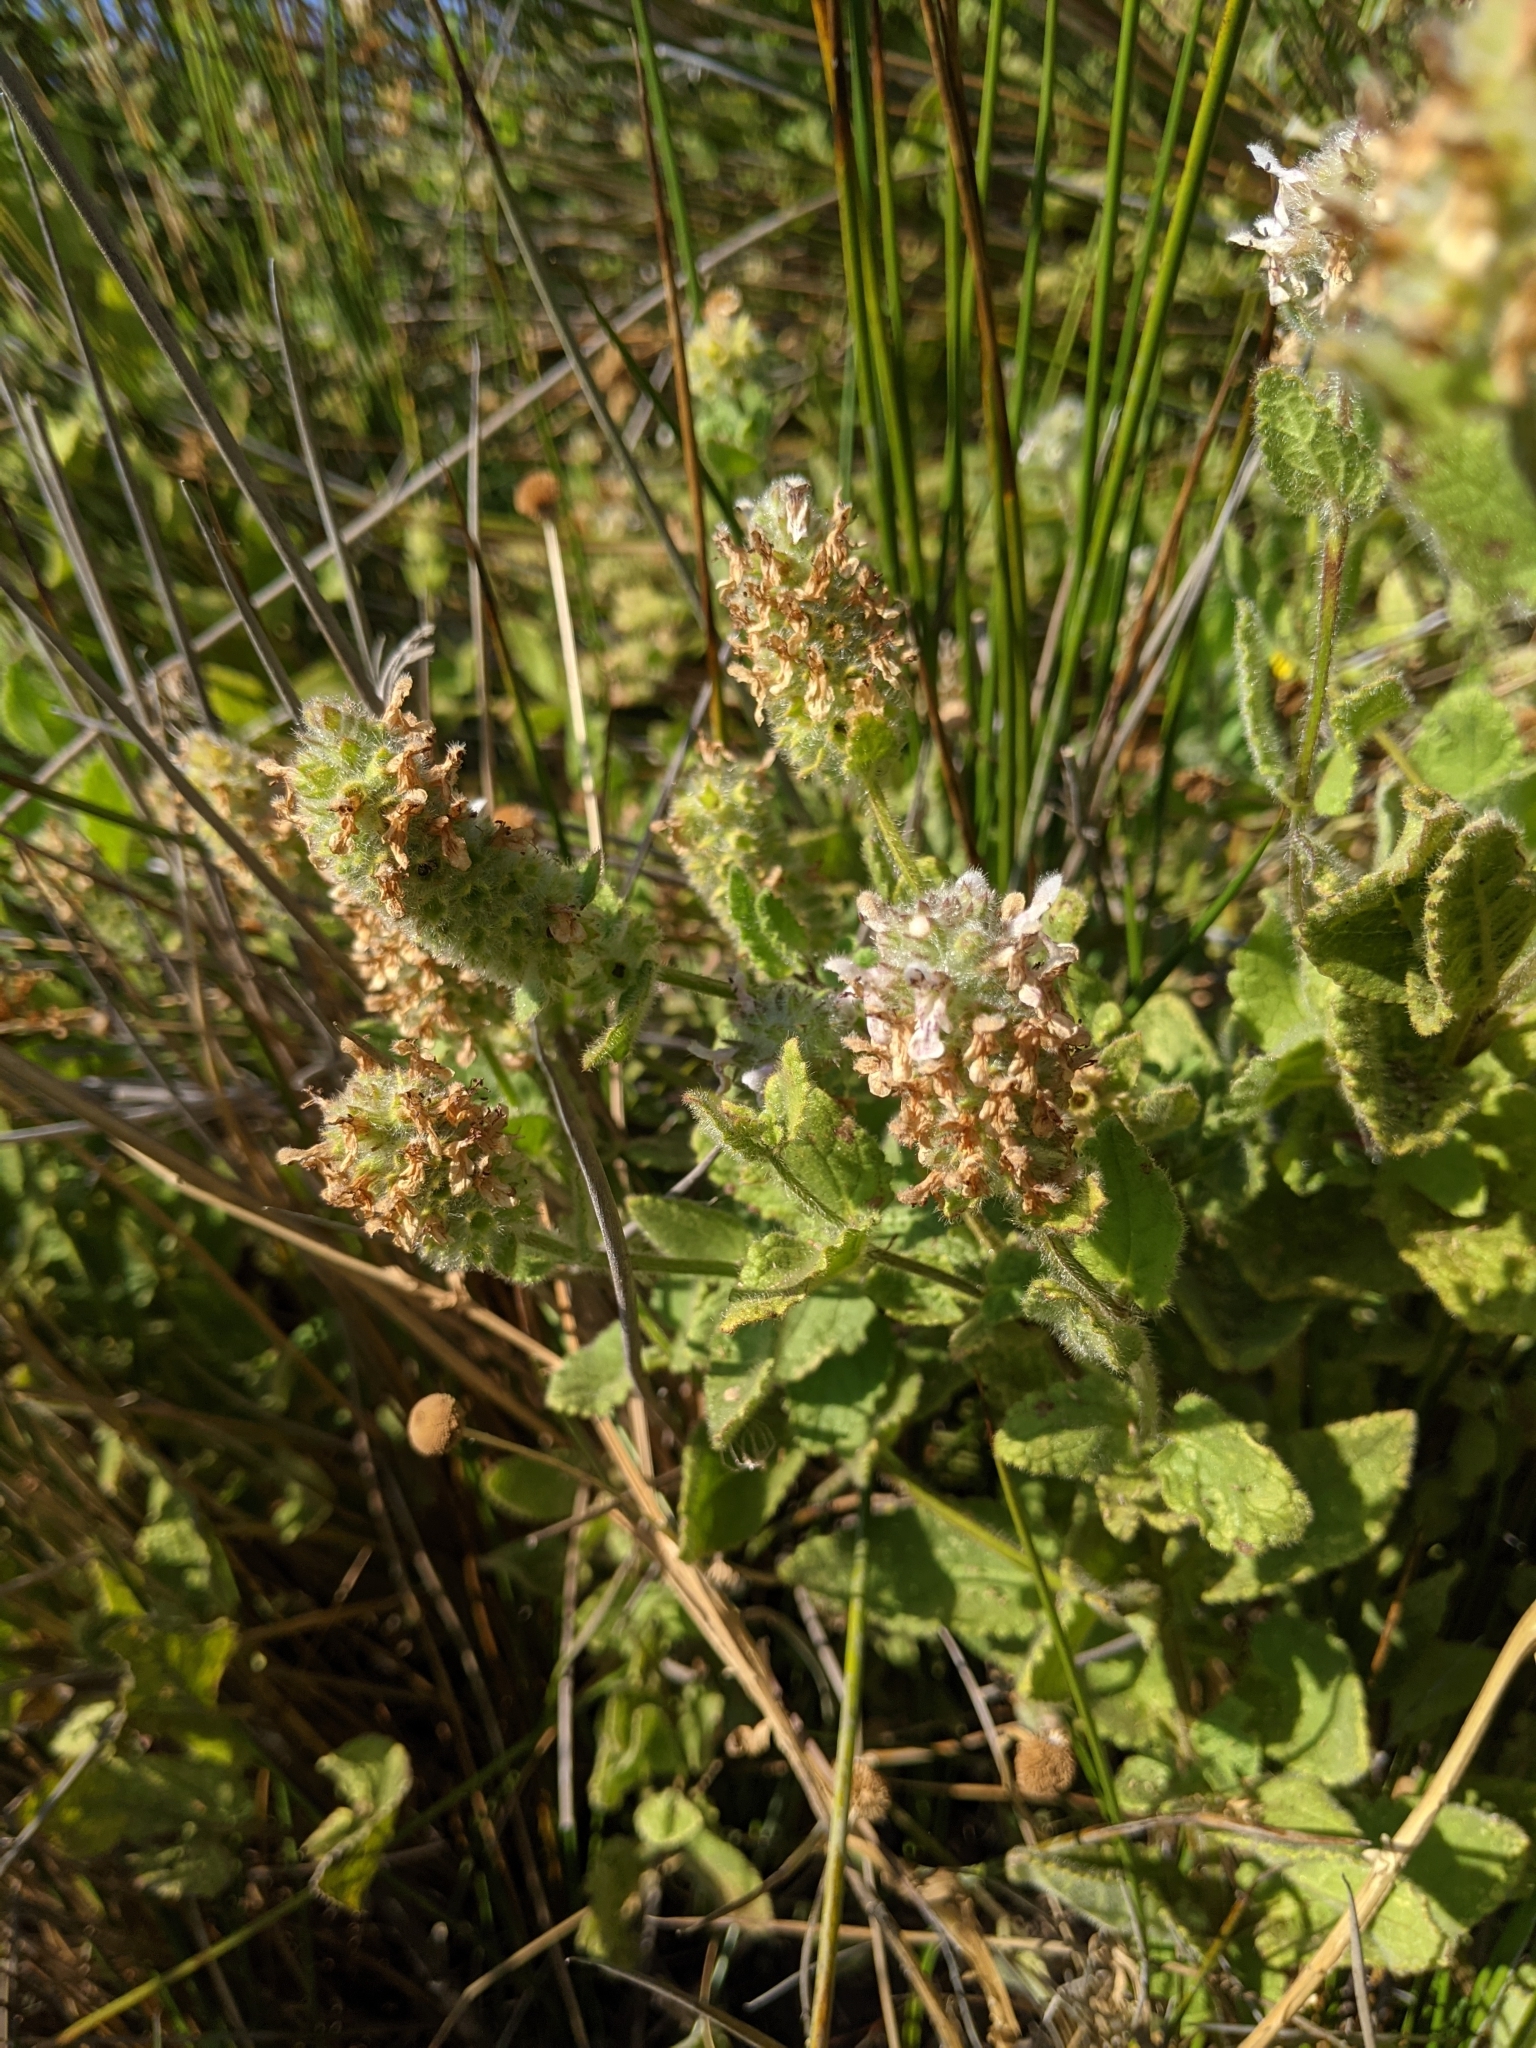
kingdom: Plantae
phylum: Tracheophyta
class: Magnoliopsida
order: Lamiales
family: Lamiaceae
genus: Stachys
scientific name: Stachys pycnantha
